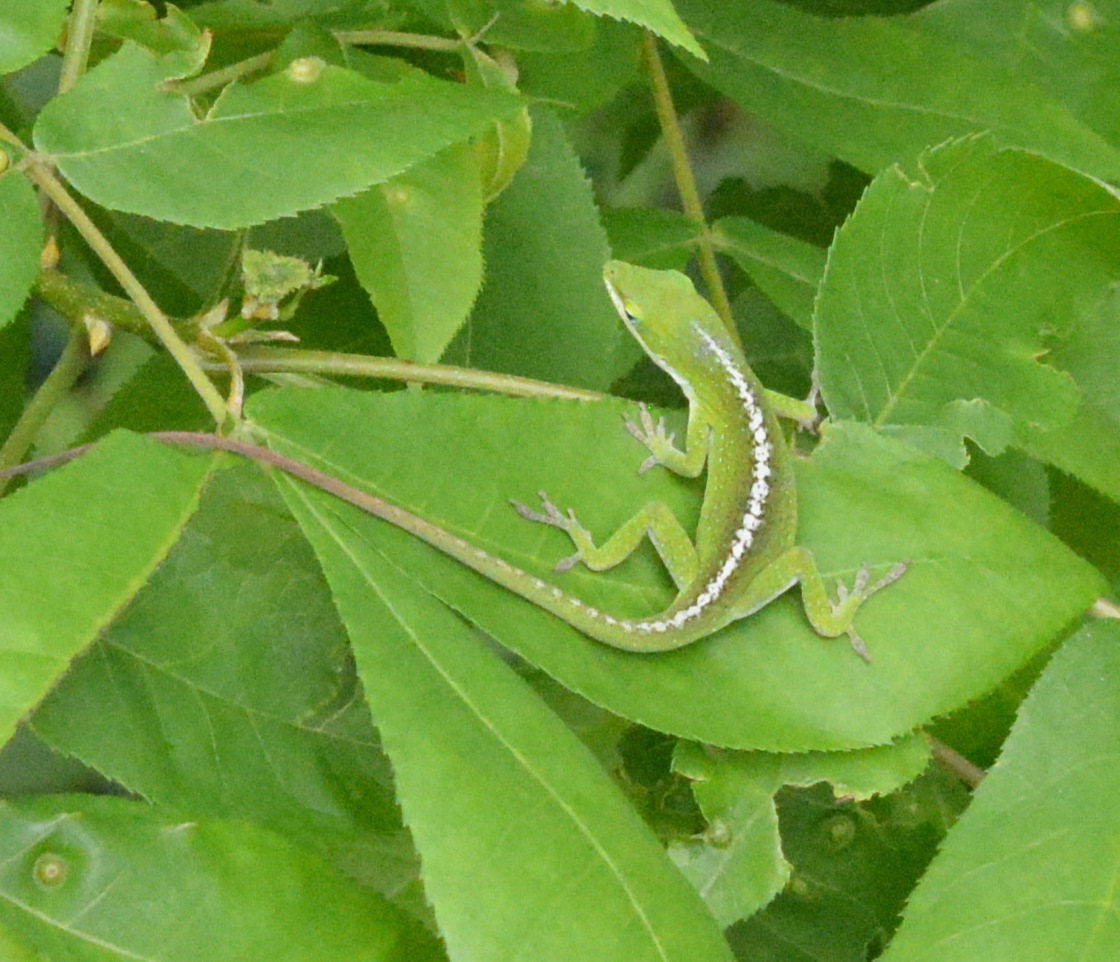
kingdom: Animalia
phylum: Chordata
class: Squamata
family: Dactyloidae
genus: Anolis
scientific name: Anolis carolinensis
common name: Green anole
